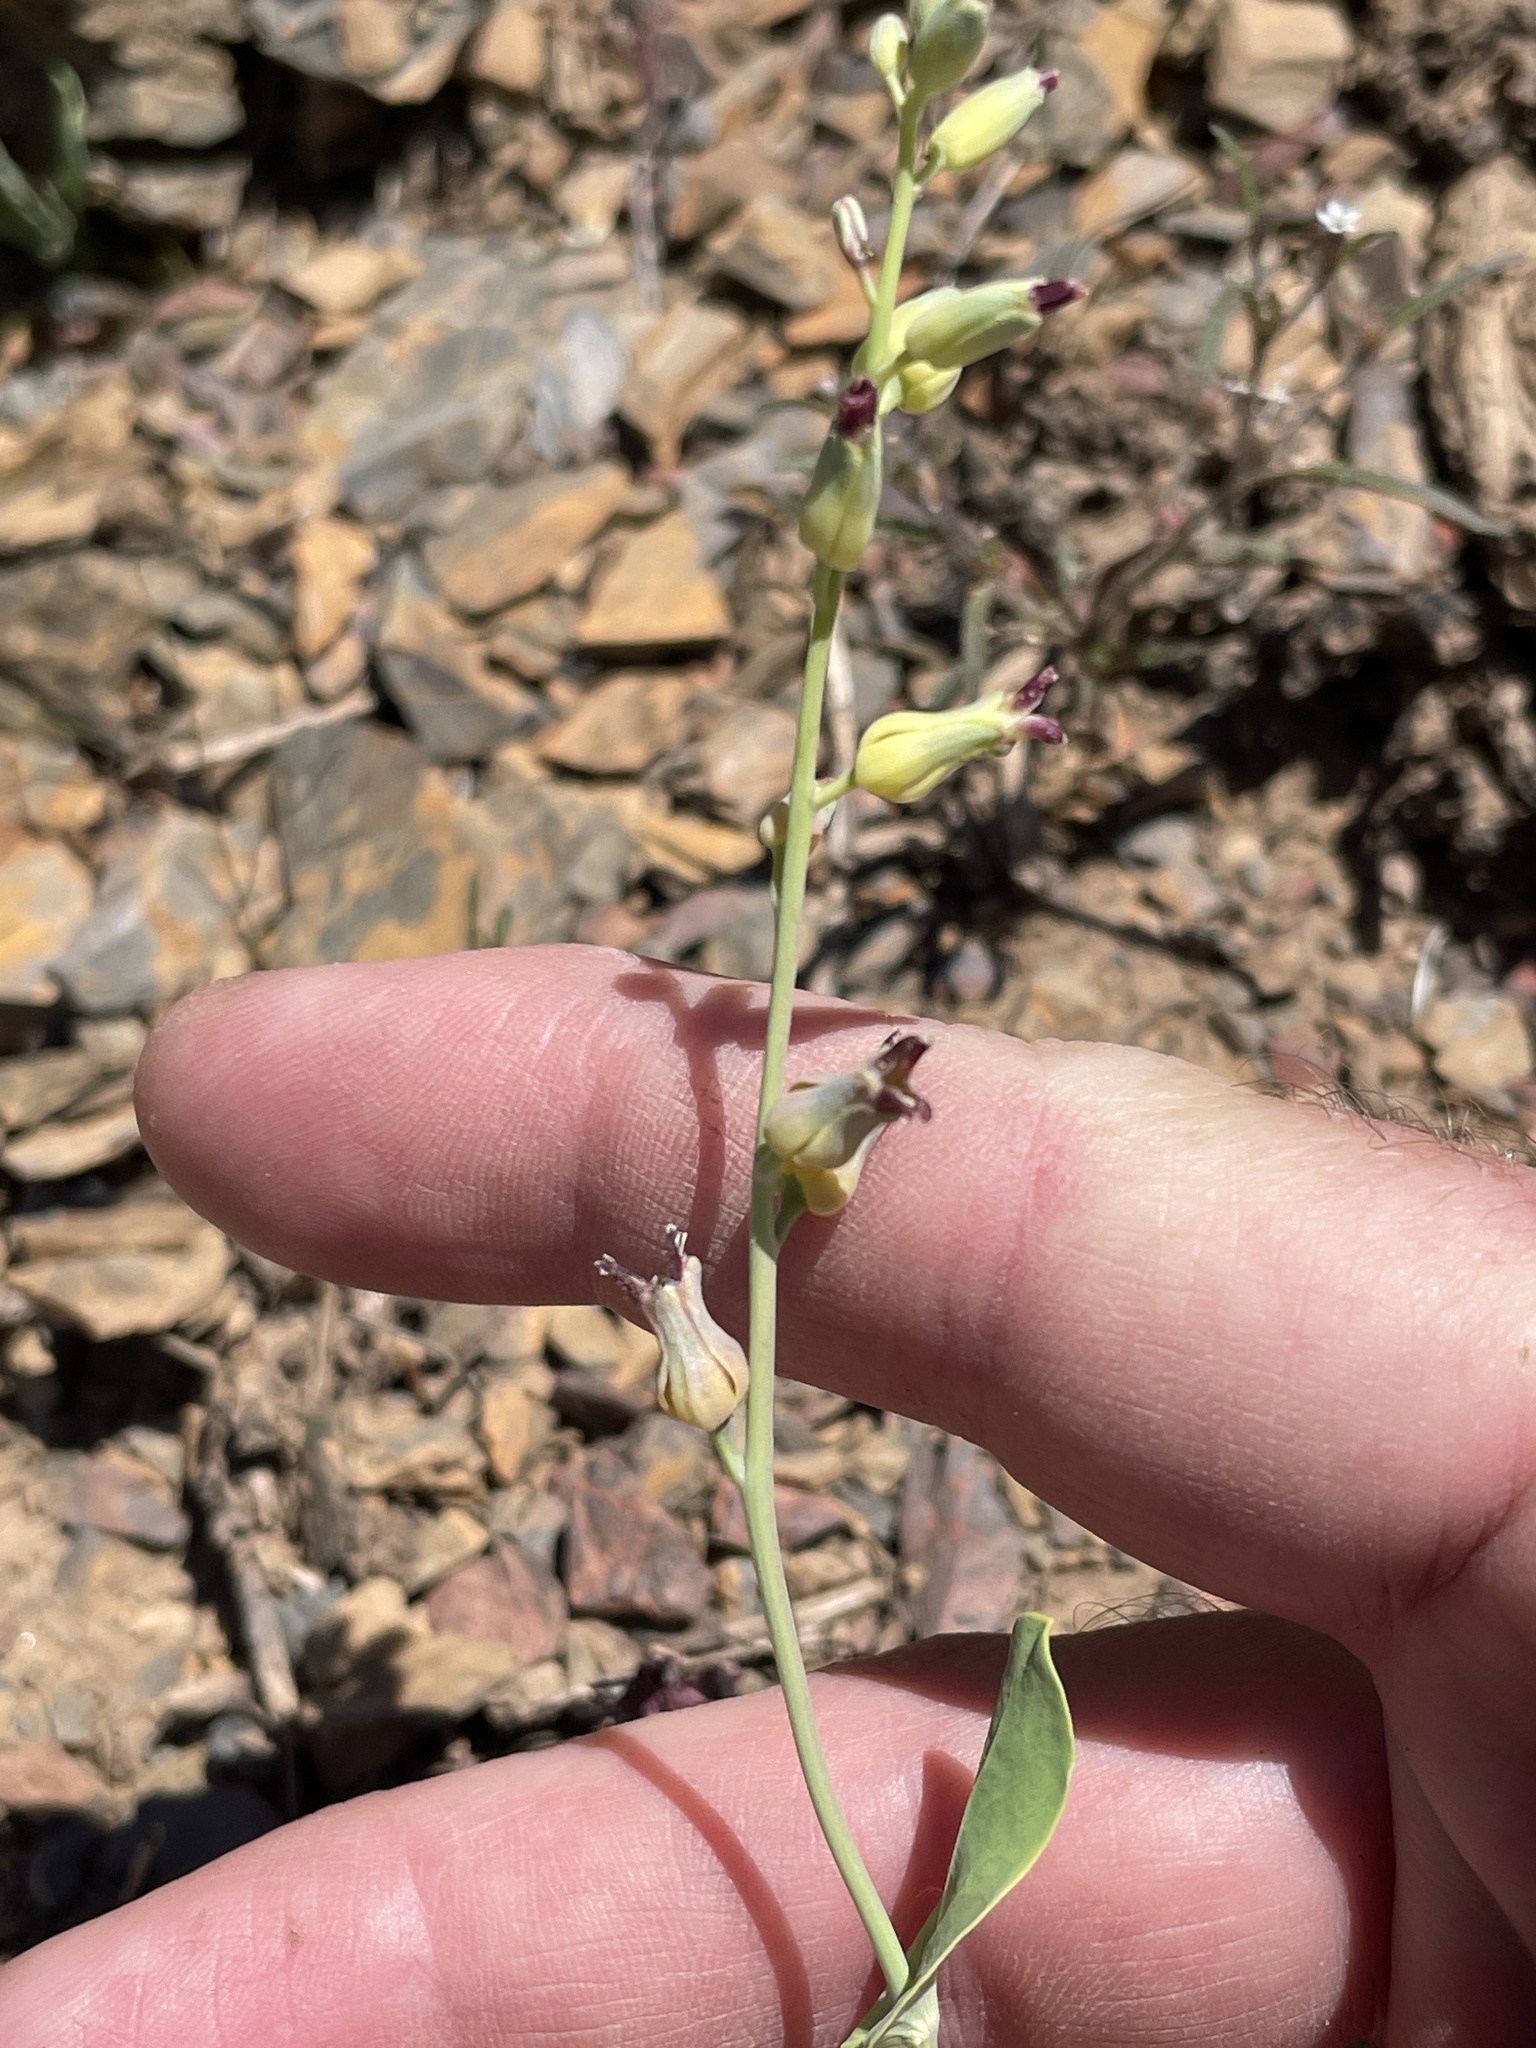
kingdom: Plantae
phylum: Tracheophyta
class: Magnoliopsida
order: Brassicales
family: Brassicaceae
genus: Streptanthus
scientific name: Streptanthus cordatus
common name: Heart-leaf jewel-flower
